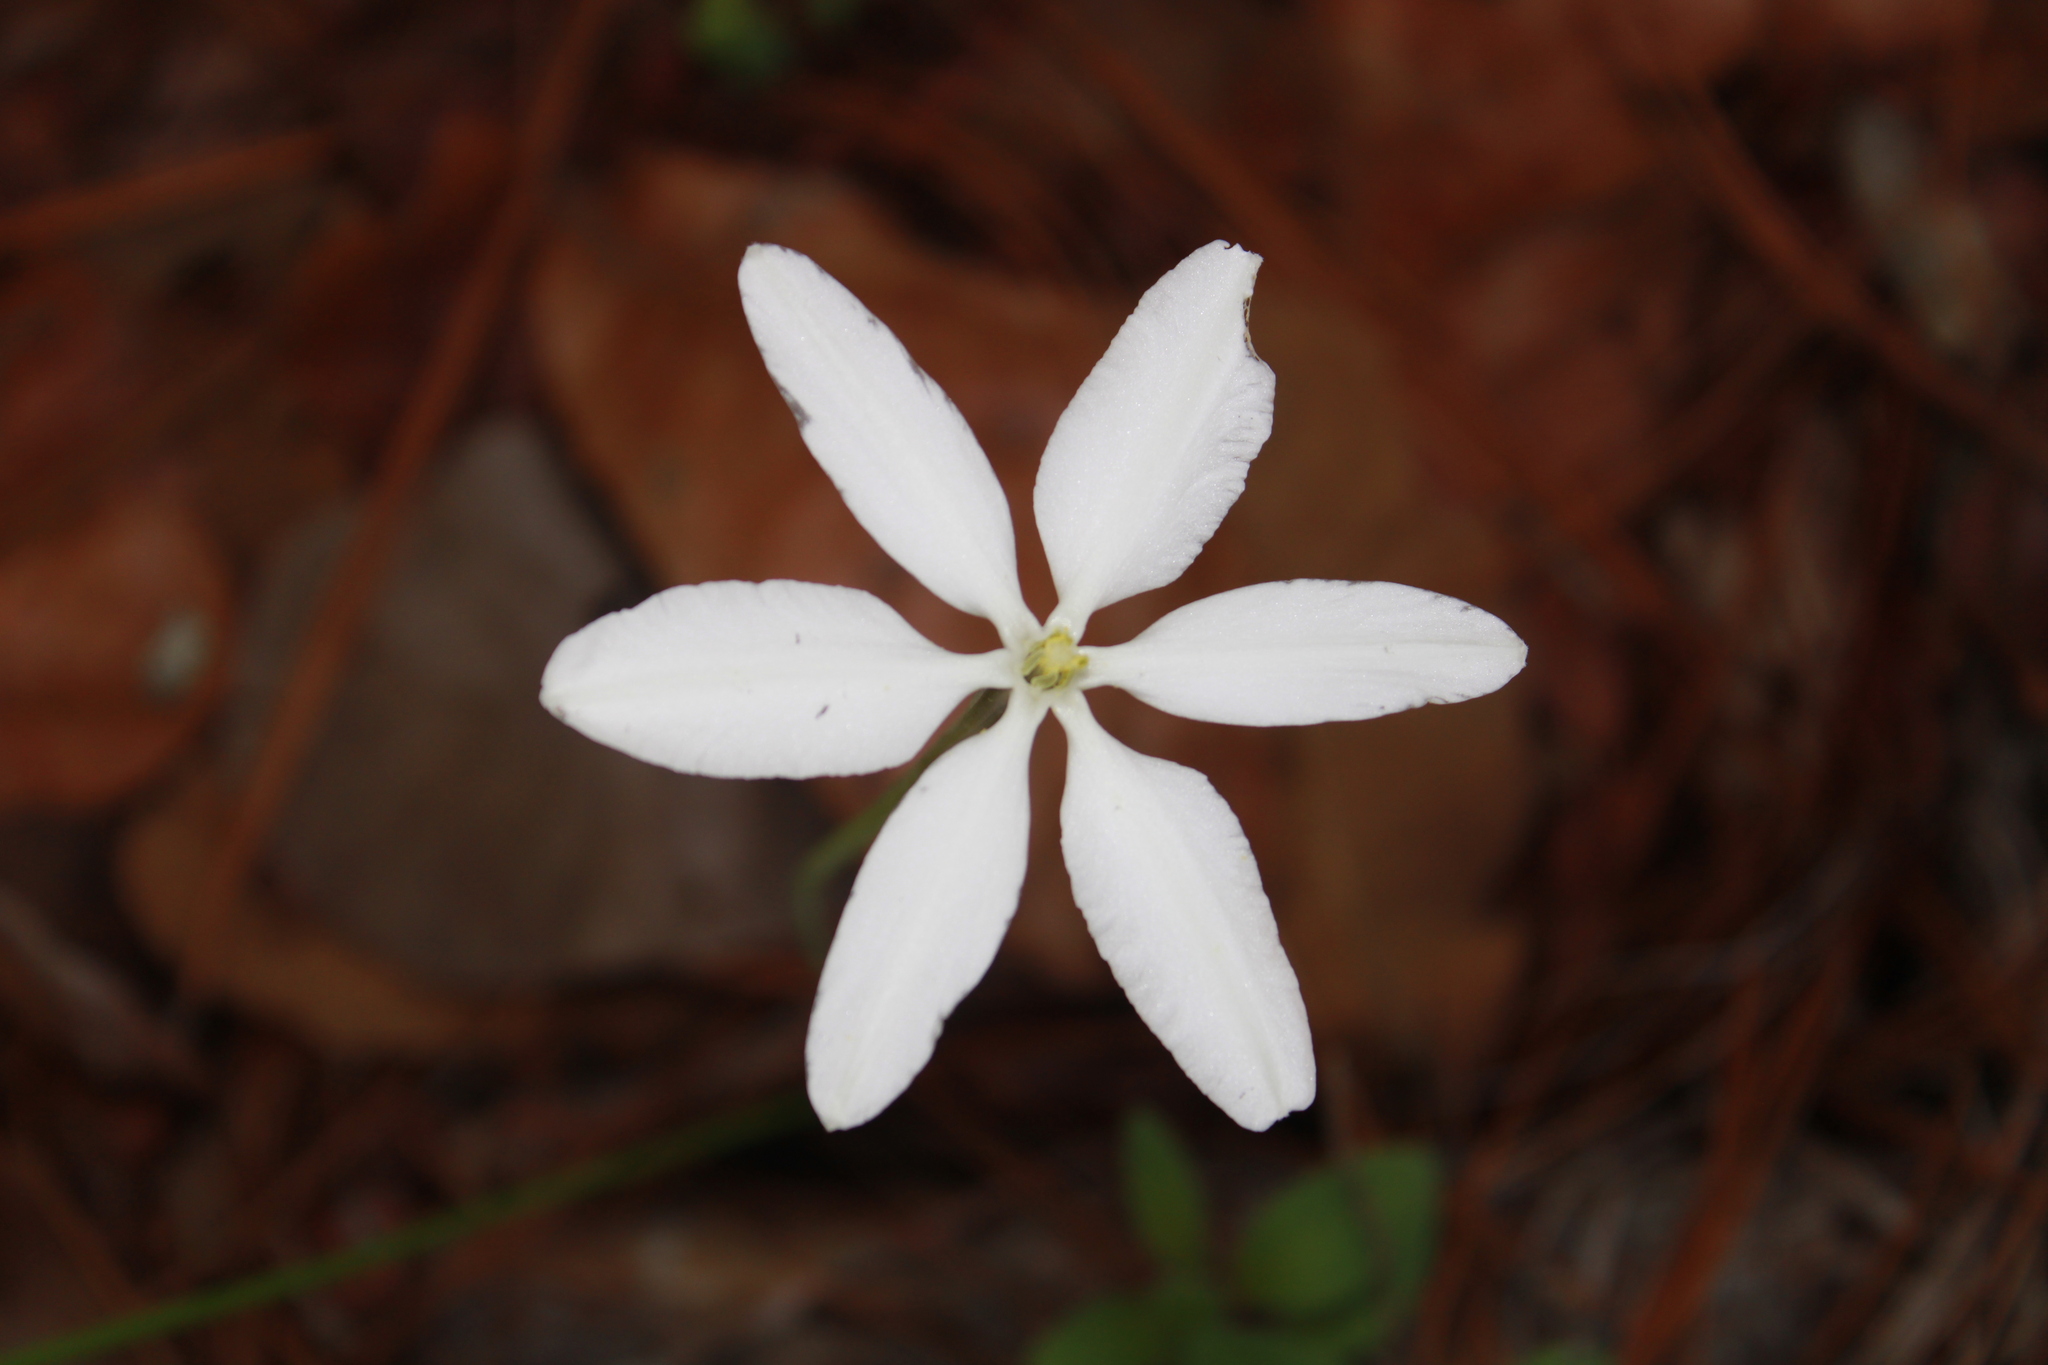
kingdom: Plantae
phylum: Tracheophyta
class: Liliopsida
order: Asparagales
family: Asparagaceae
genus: Milla
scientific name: Milla biflora
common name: Mexican-star
